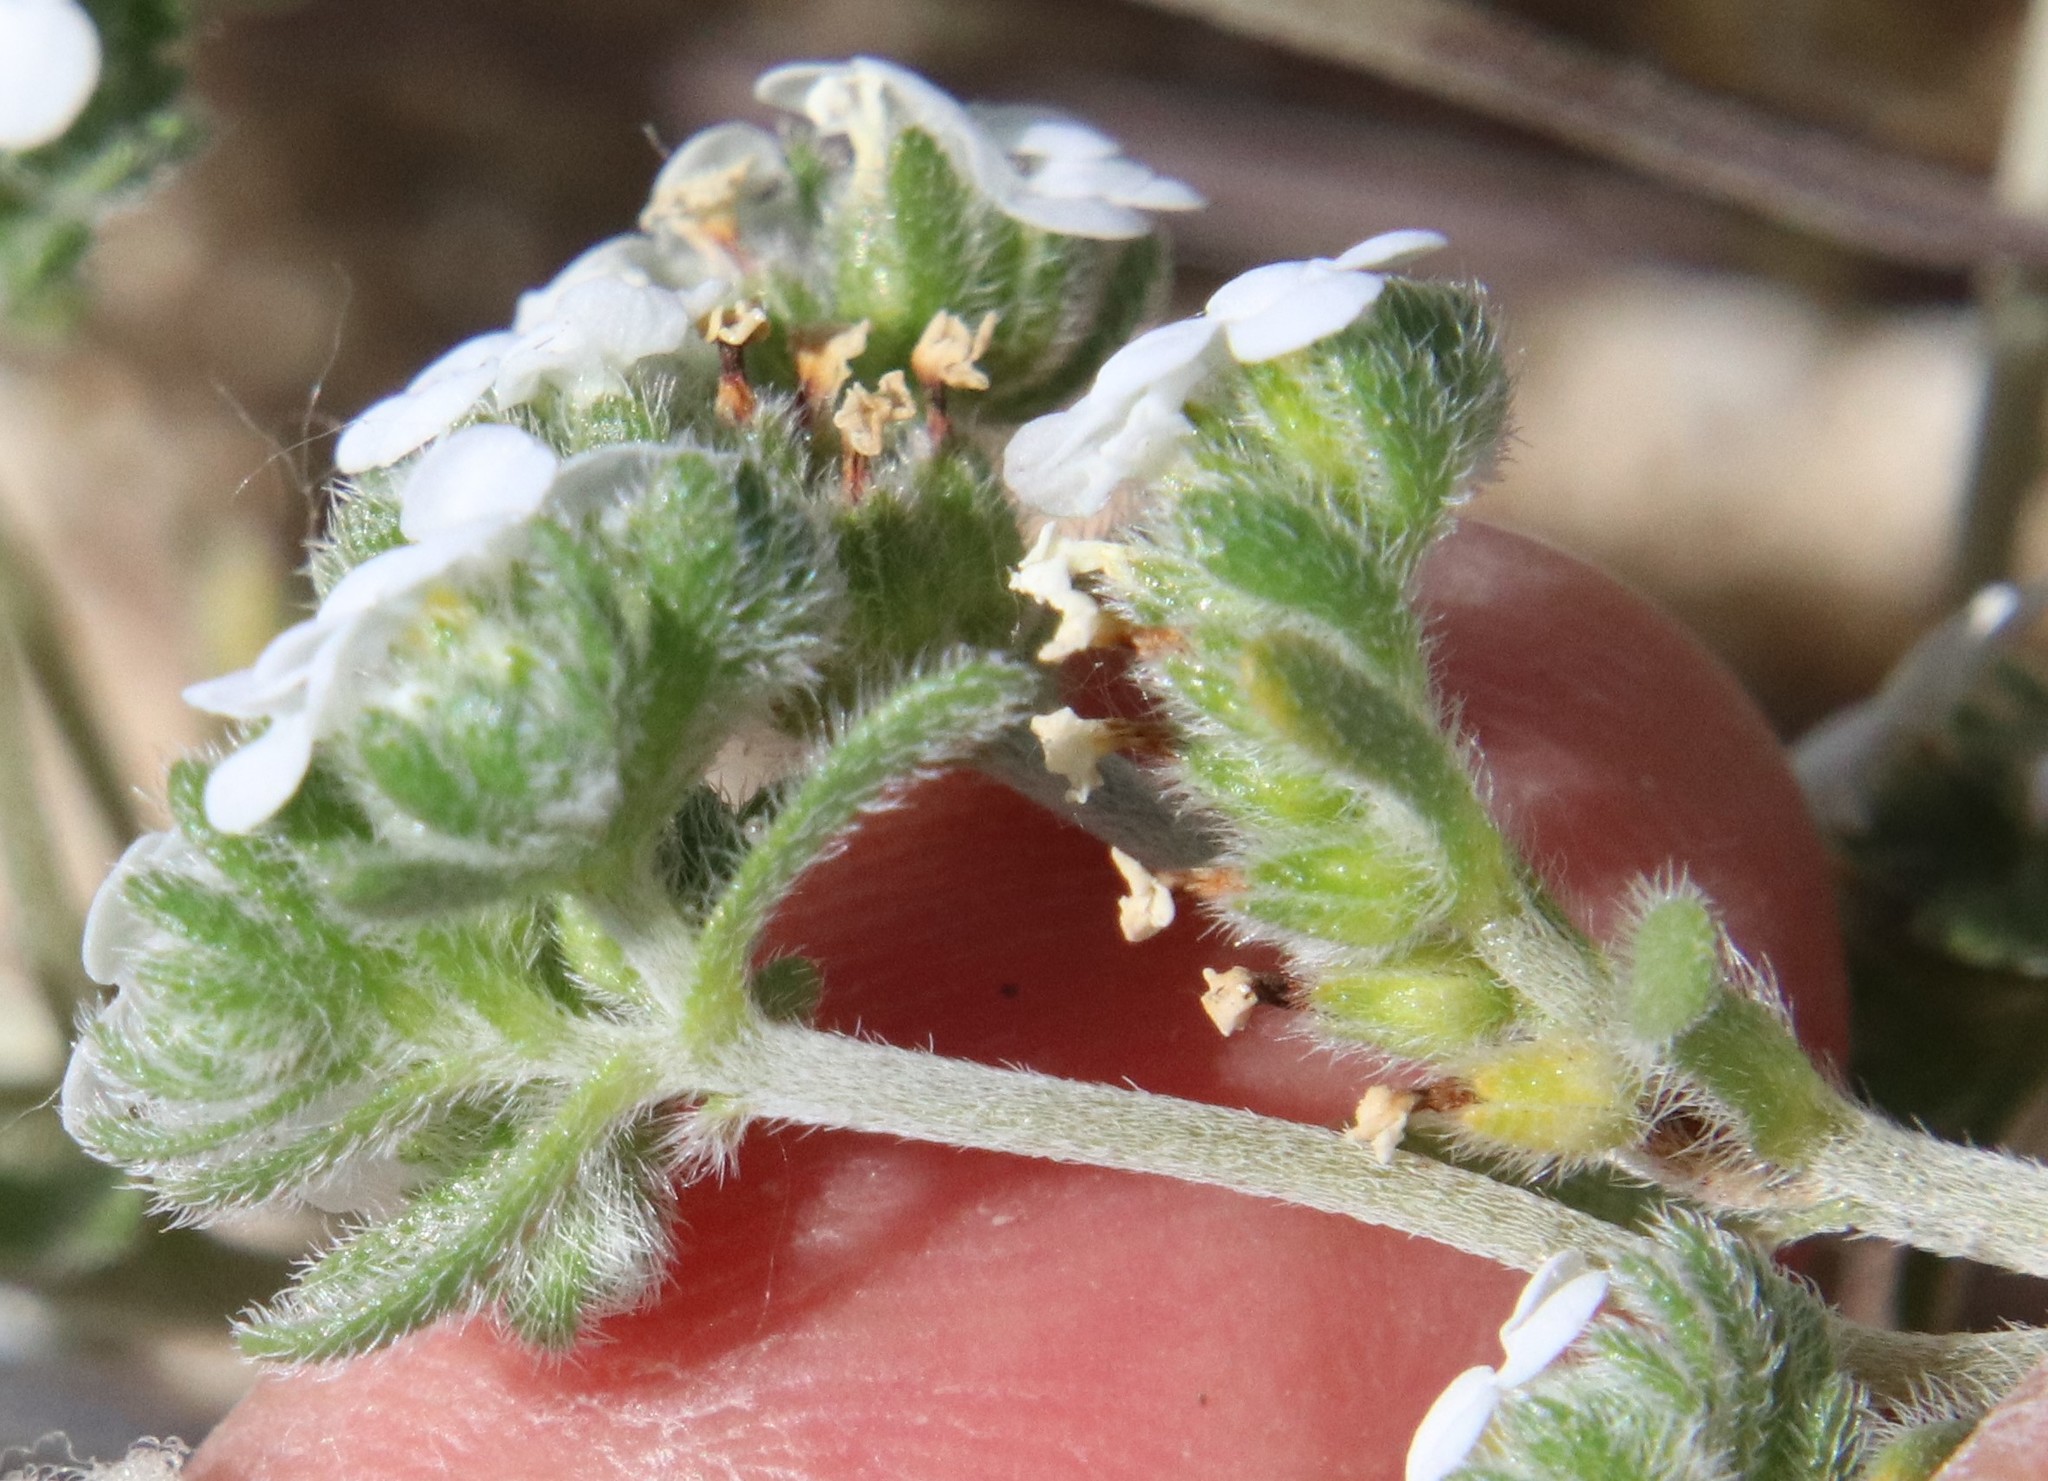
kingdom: Plantae
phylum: Tracheophyta
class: Magnoliopsida
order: Boraginales
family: Boraginaceae
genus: Eremocarya
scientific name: Eremocarya lepida
